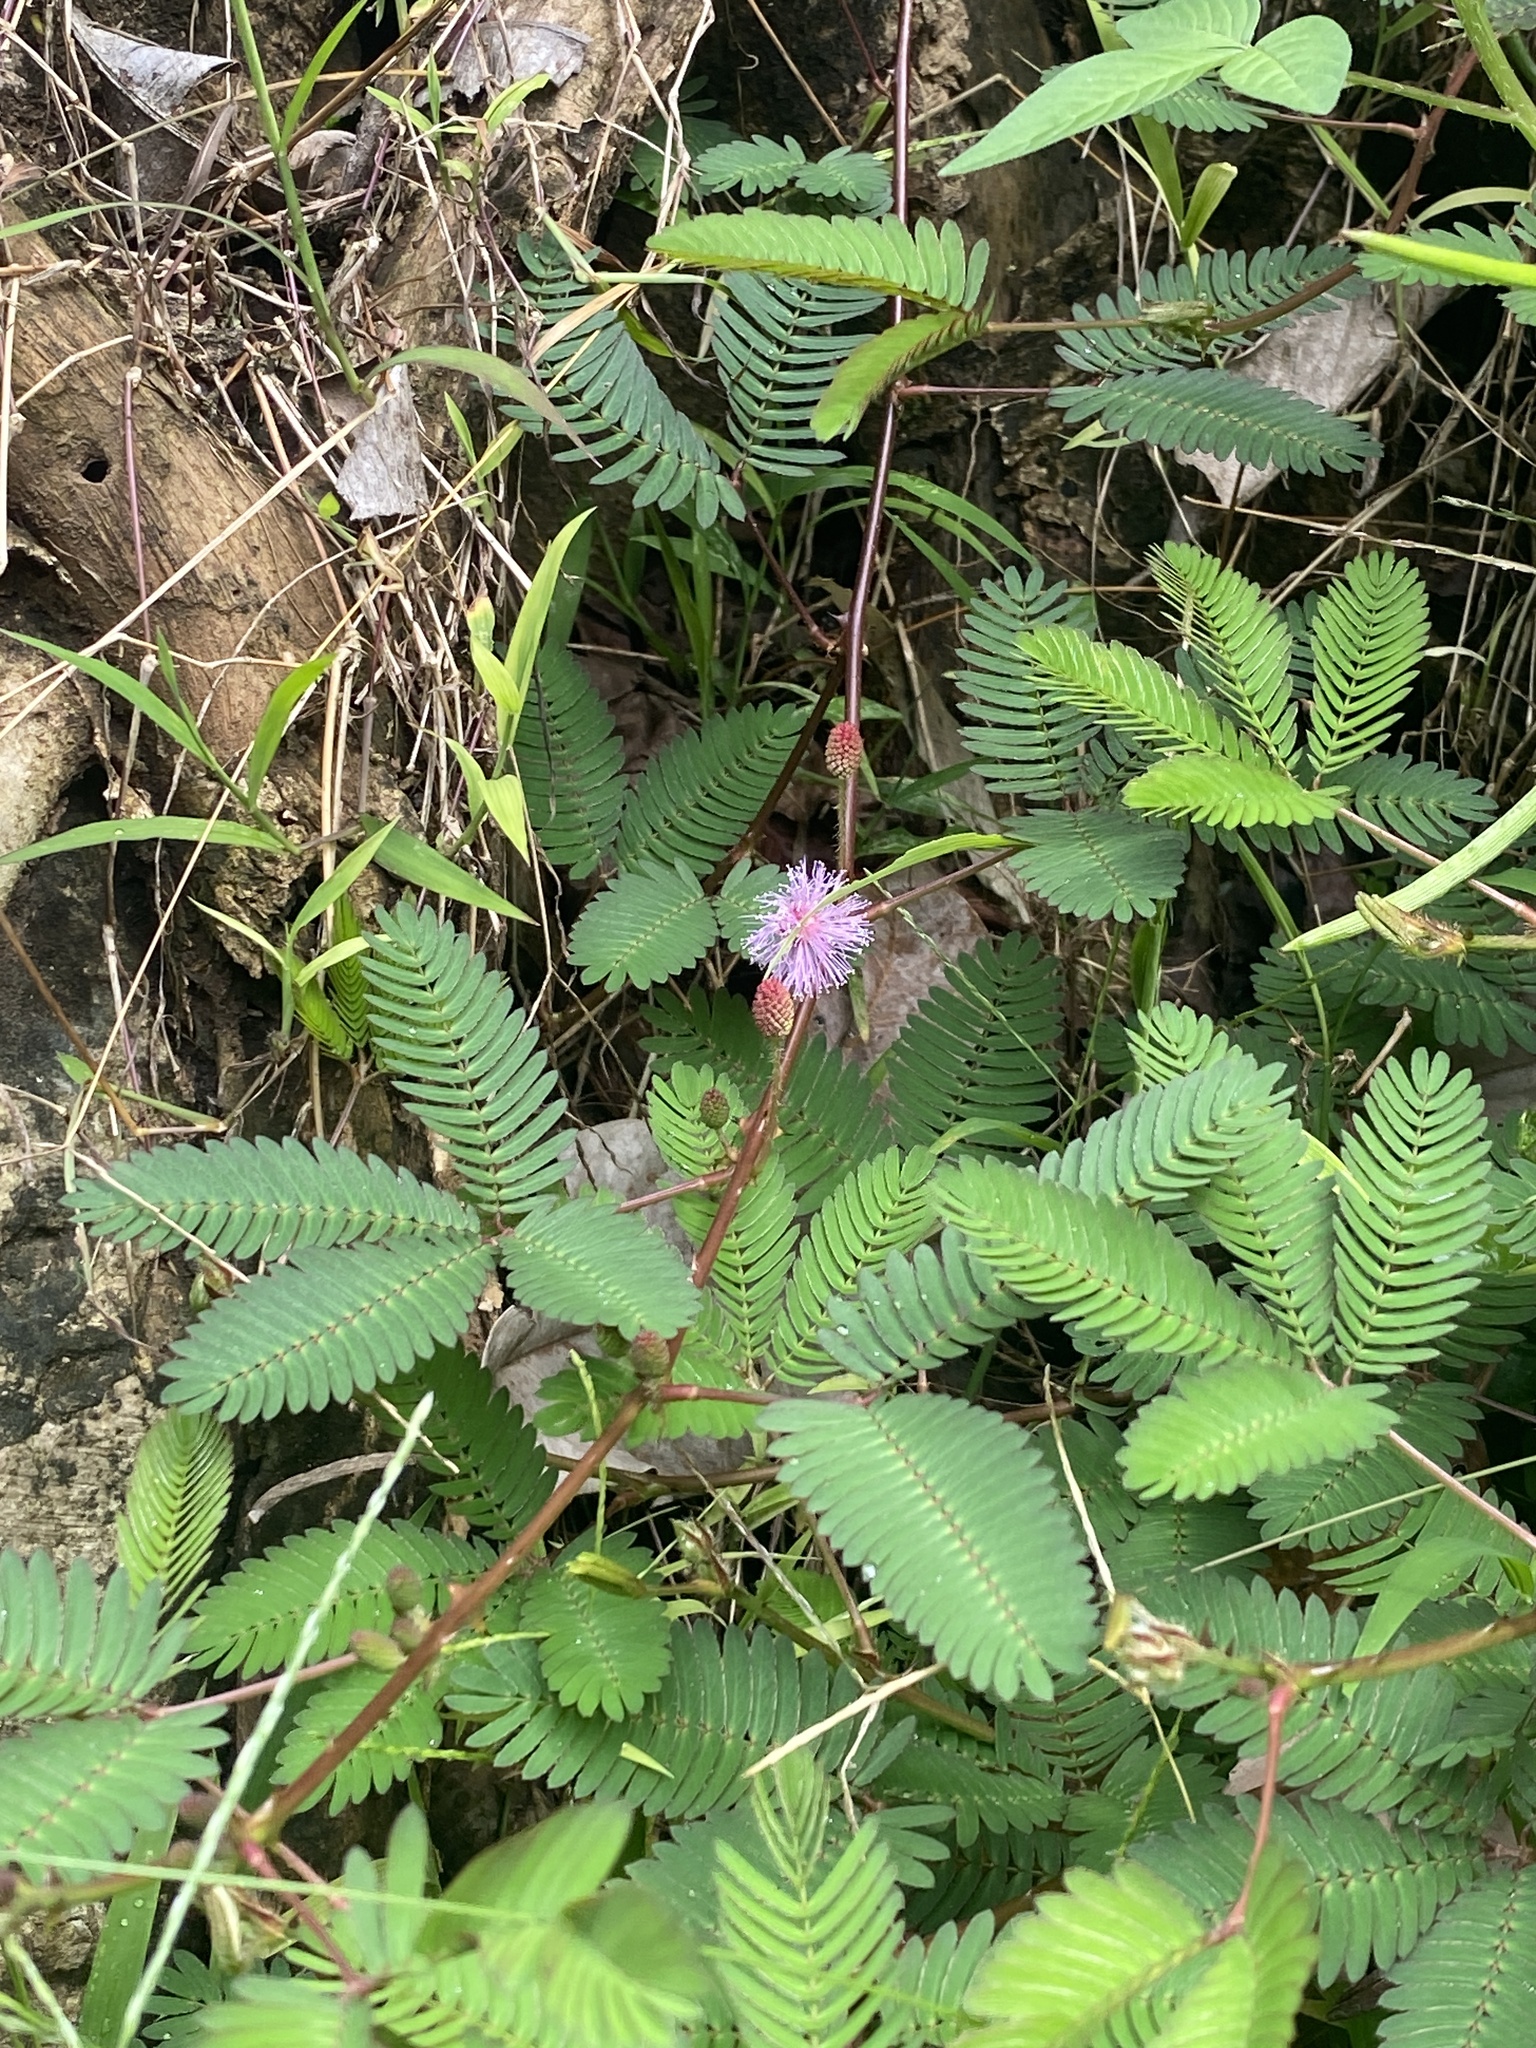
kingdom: Plantae
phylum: Tracheophyta
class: Magnoliopsida
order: Fabales
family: Fabaceae
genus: Mimosa
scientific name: Mimosa pudica
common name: Sensitive plant
